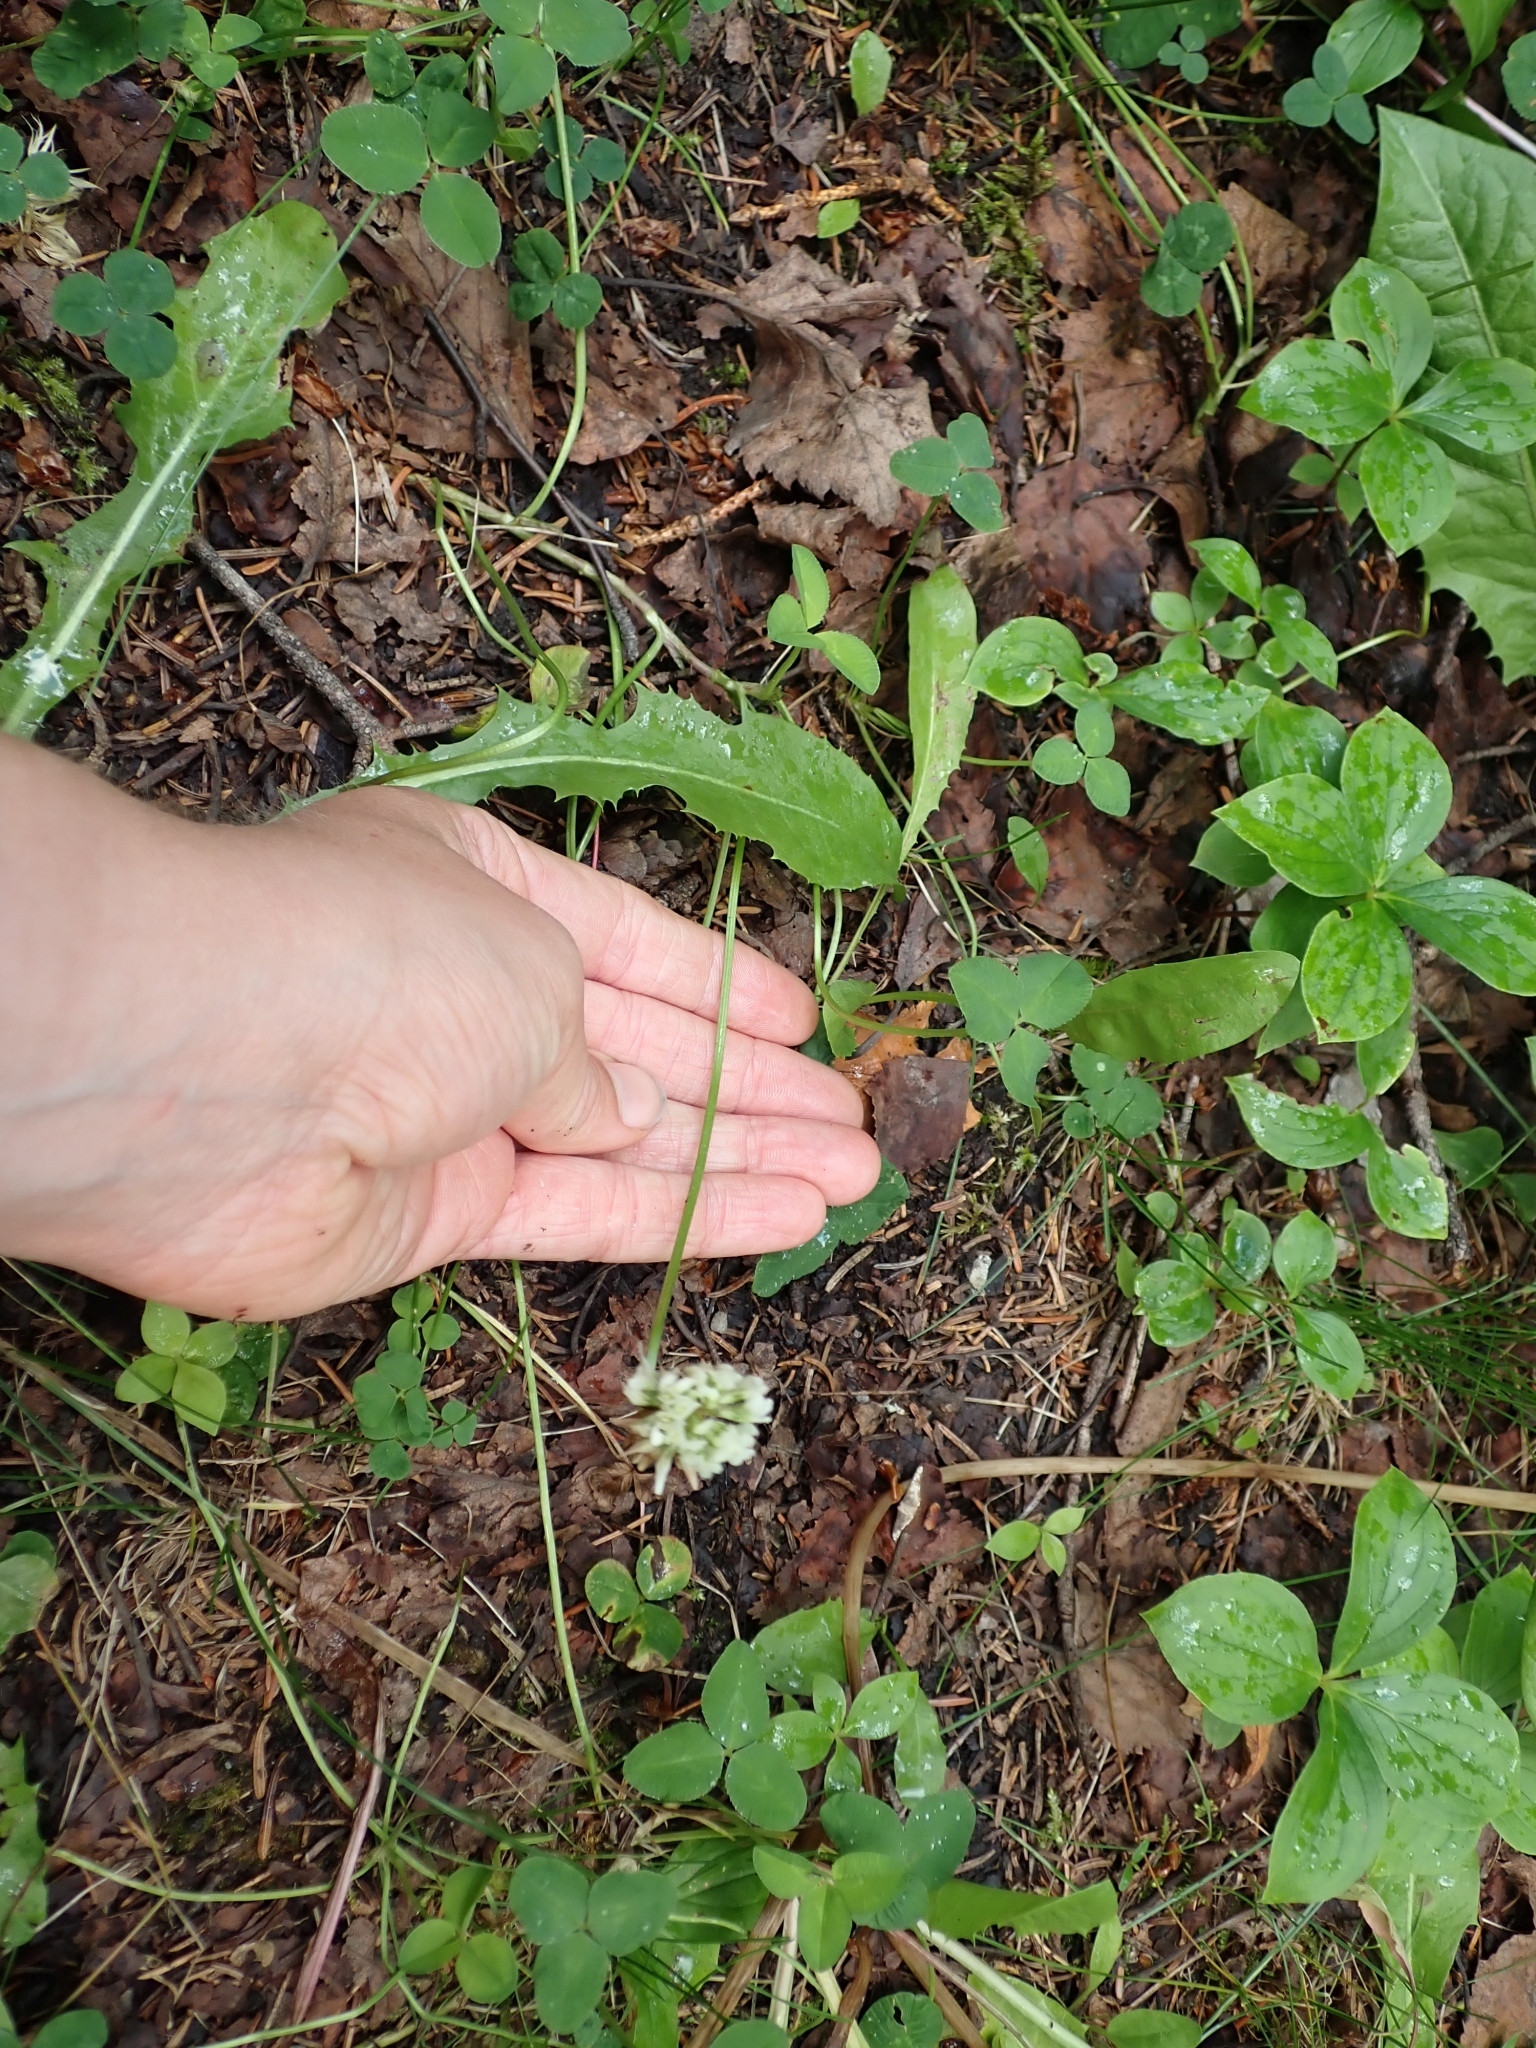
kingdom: Plantae
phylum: Tracheophyta
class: Magnoliopsida
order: Fabales
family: Fabaceae
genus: Trifolium
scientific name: Trifolium repens
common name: White clover
